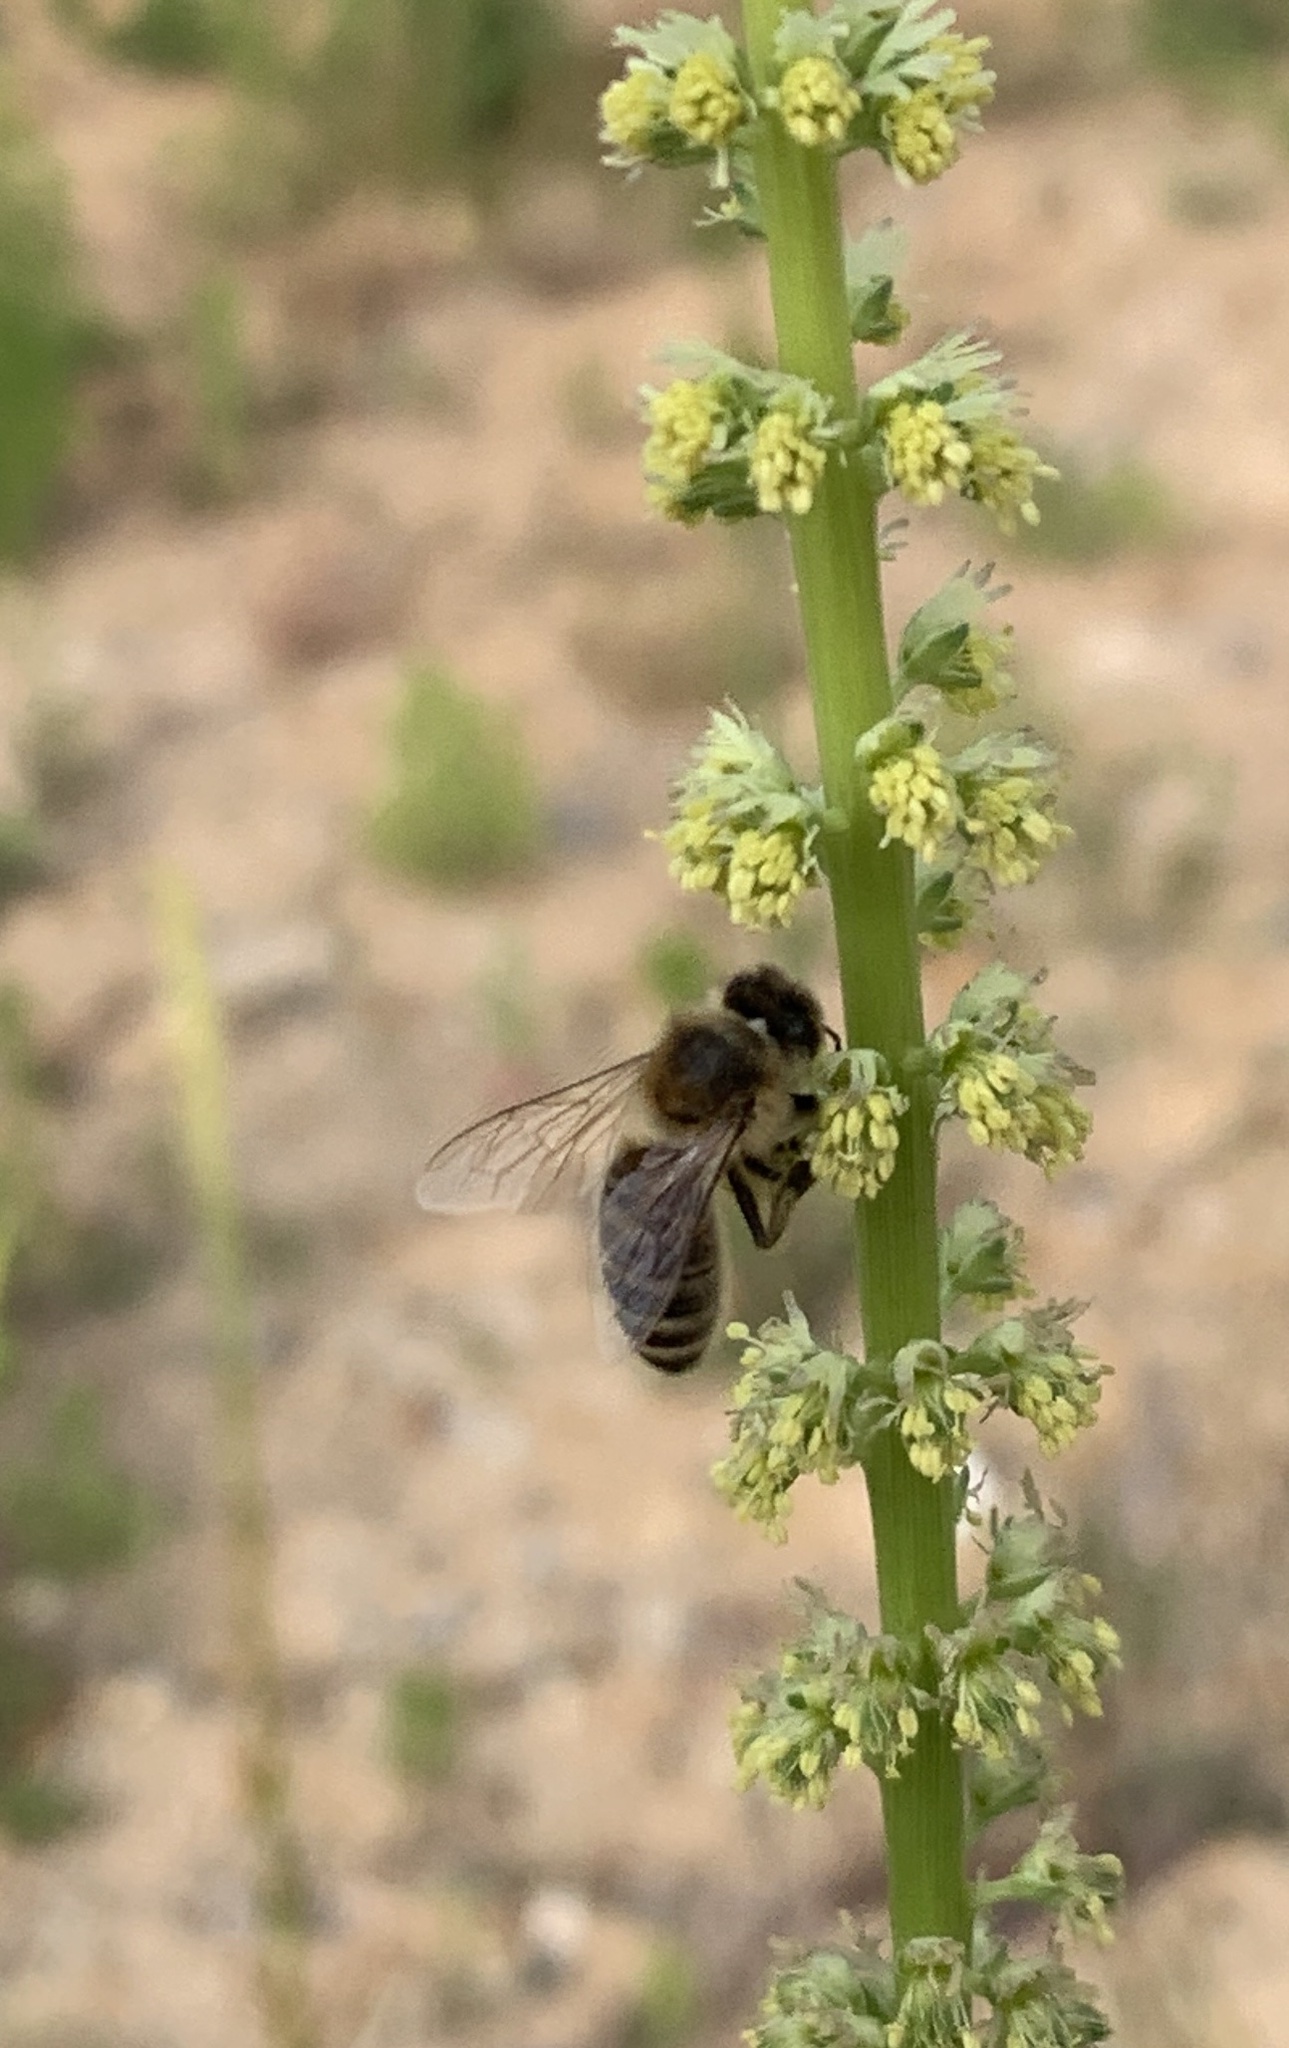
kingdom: Animalia
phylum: Arthropoda
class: Insecta
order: Hymenoptera
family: Apidae
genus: Apis
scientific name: Apis mellifera
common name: Honey bee
